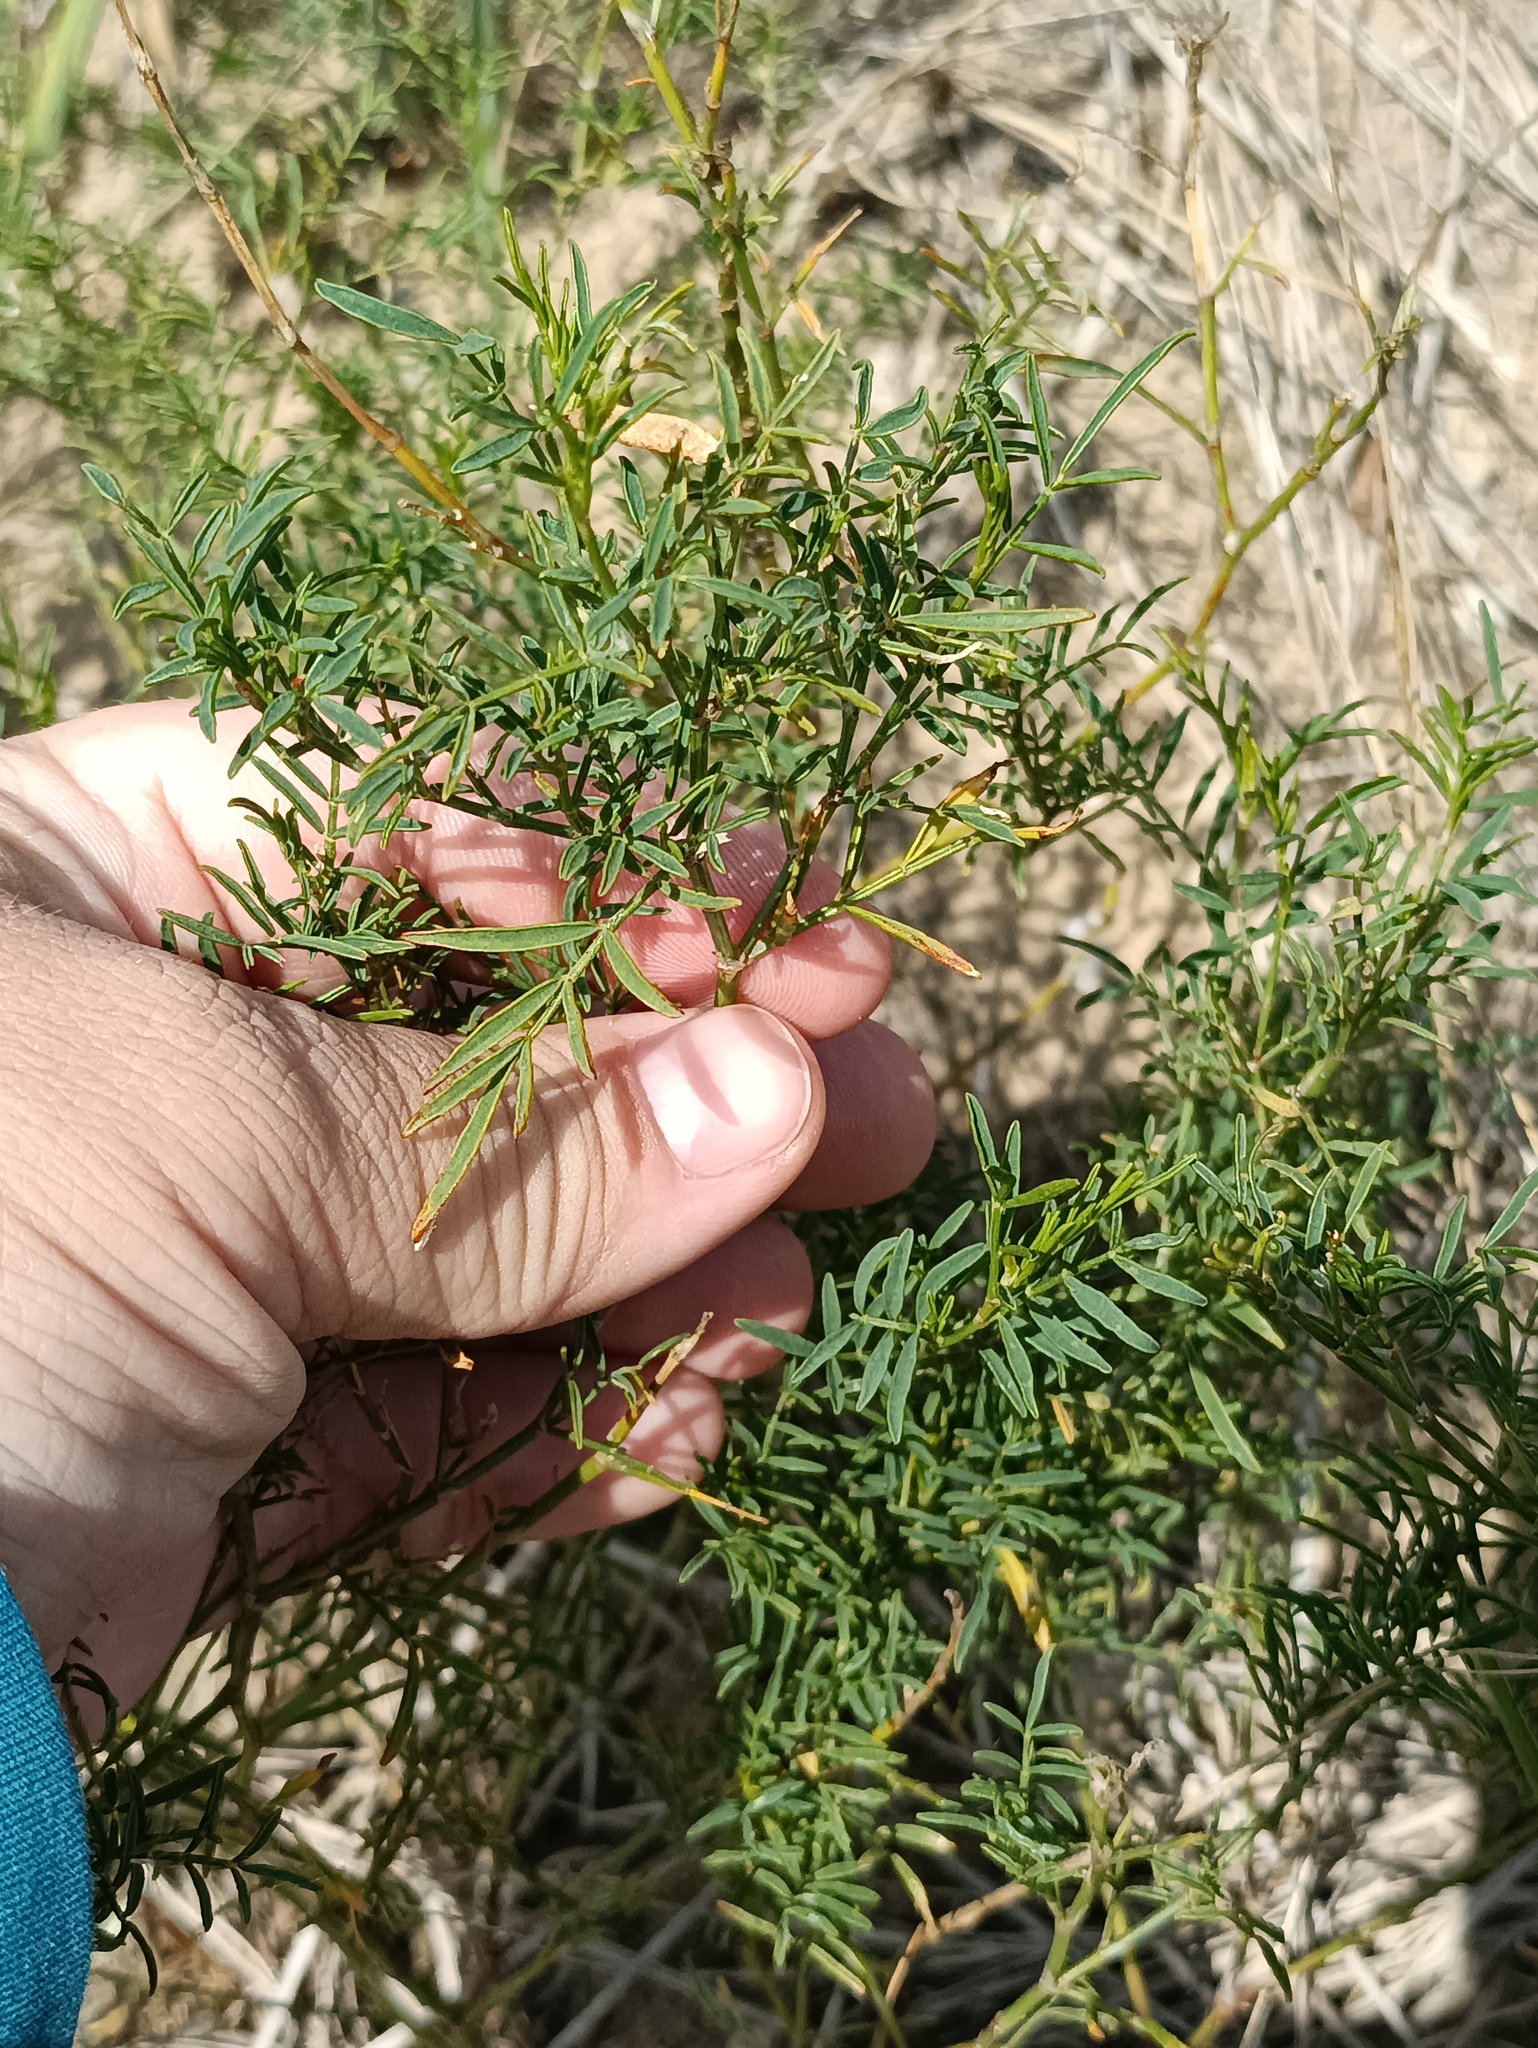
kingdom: Plantae
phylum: Tracheophyta
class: Magnoliopsida
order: Fabales
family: Fabaceae
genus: Astragalus
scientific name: Astragalus arenarius
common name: Arenarious milk-vetch
